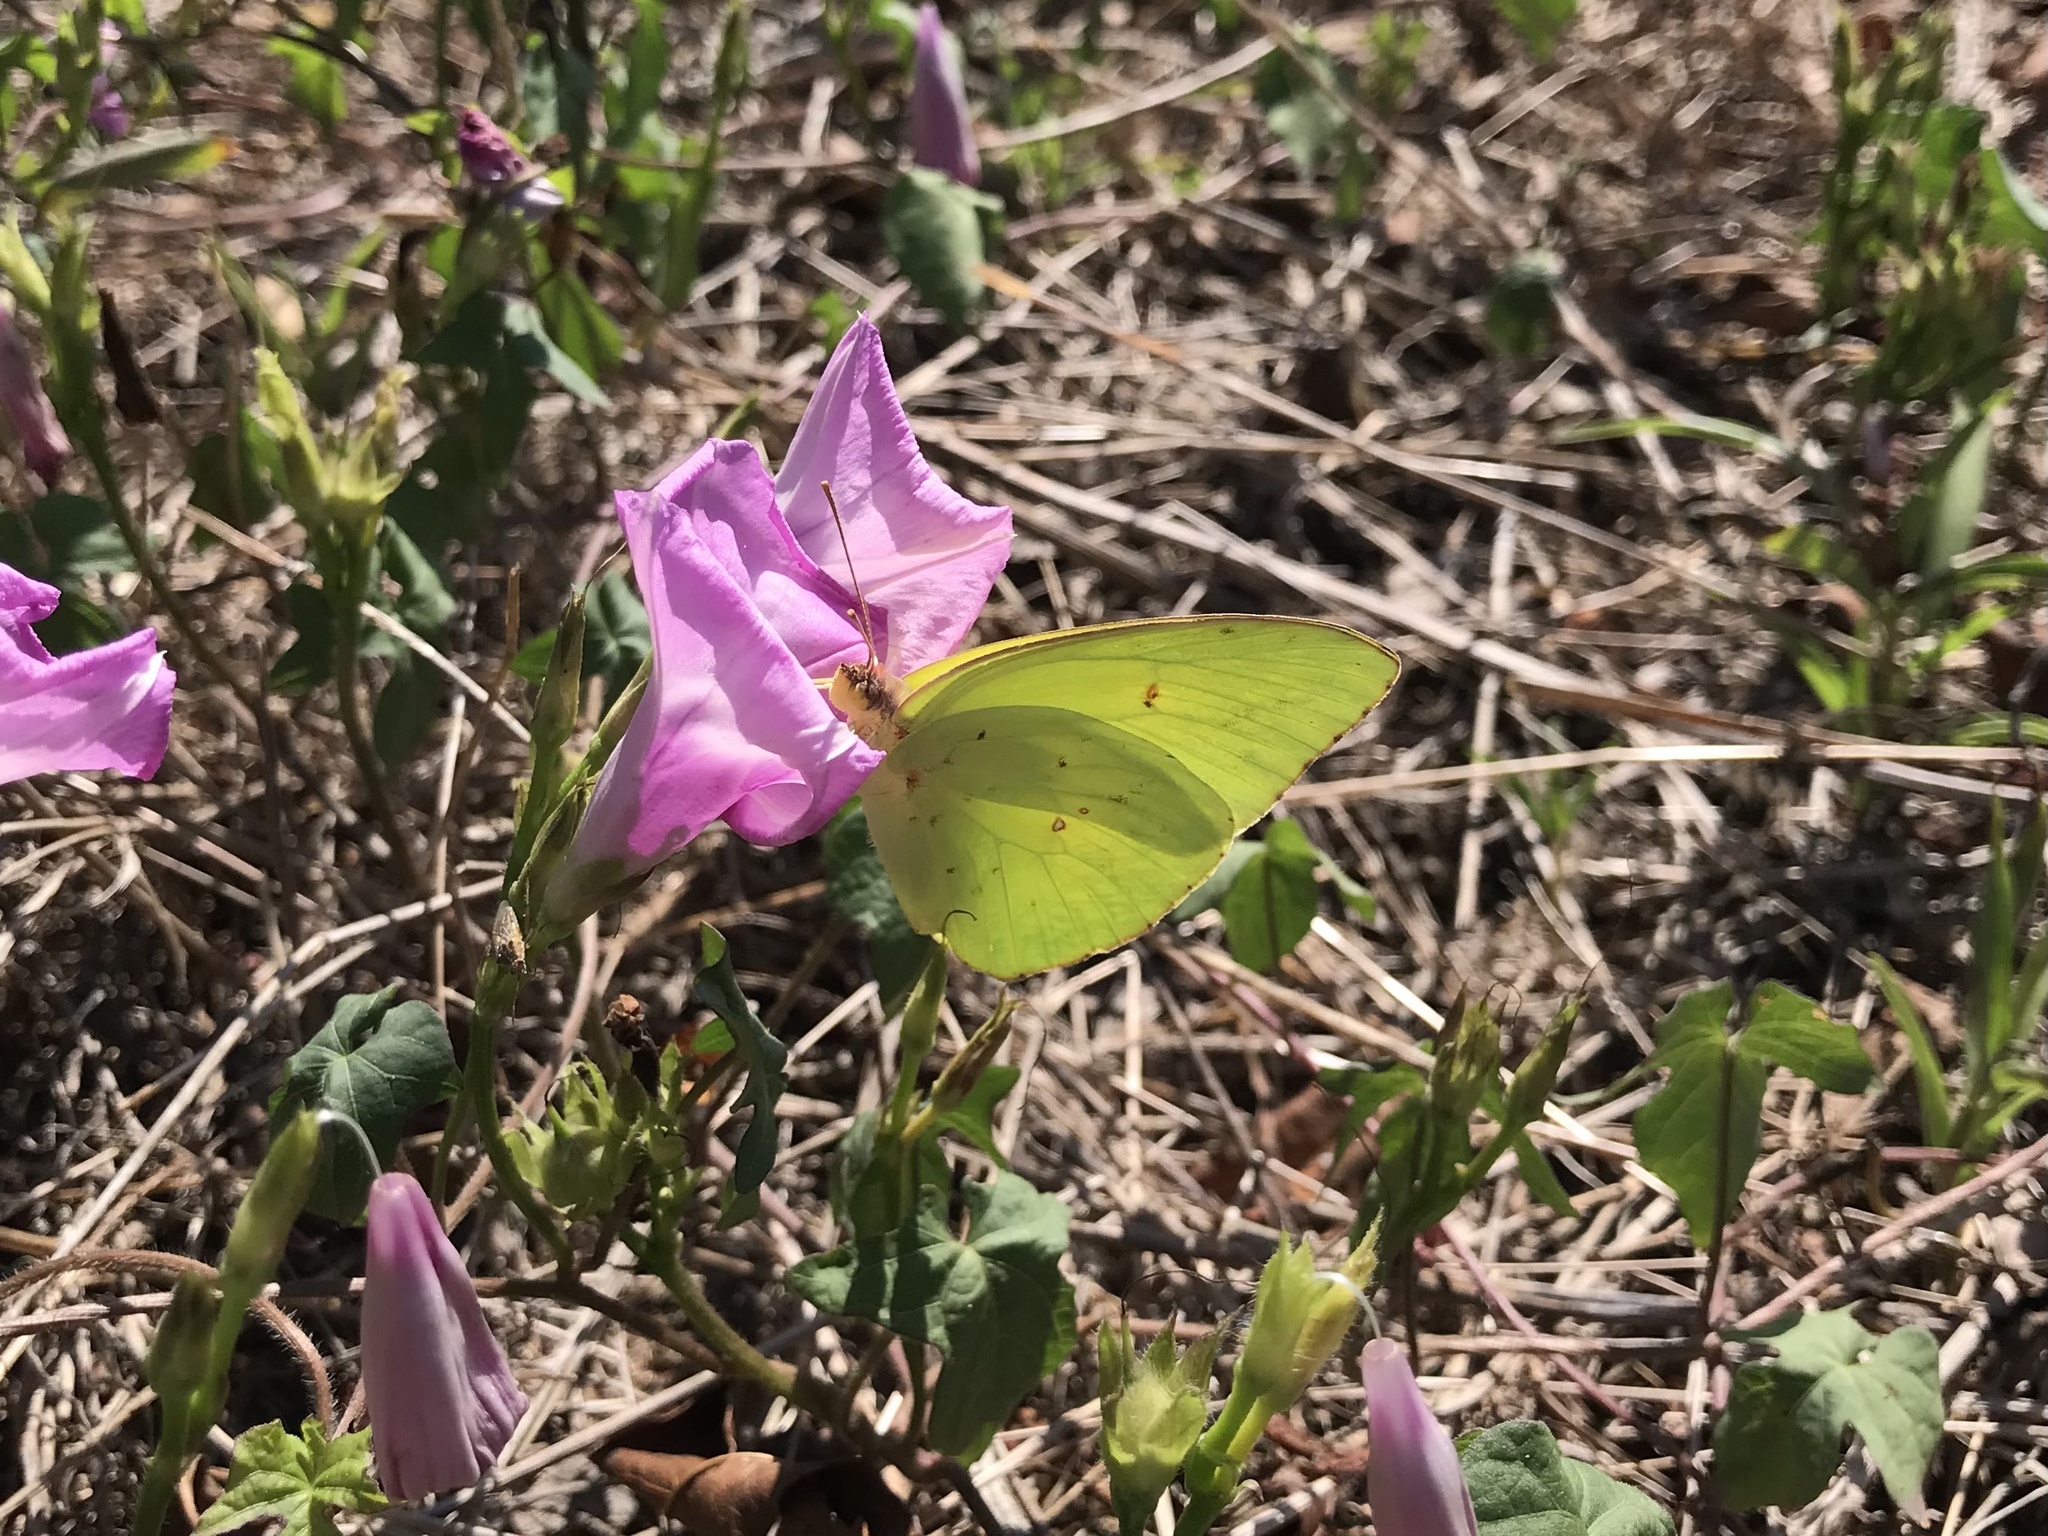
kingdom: Animalia
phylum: Arthropoda
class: Insecta
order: Lepidoptera
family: Pieridae
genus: Phoebis
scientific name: Phoebis sennae
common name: Cloudless sulphur
